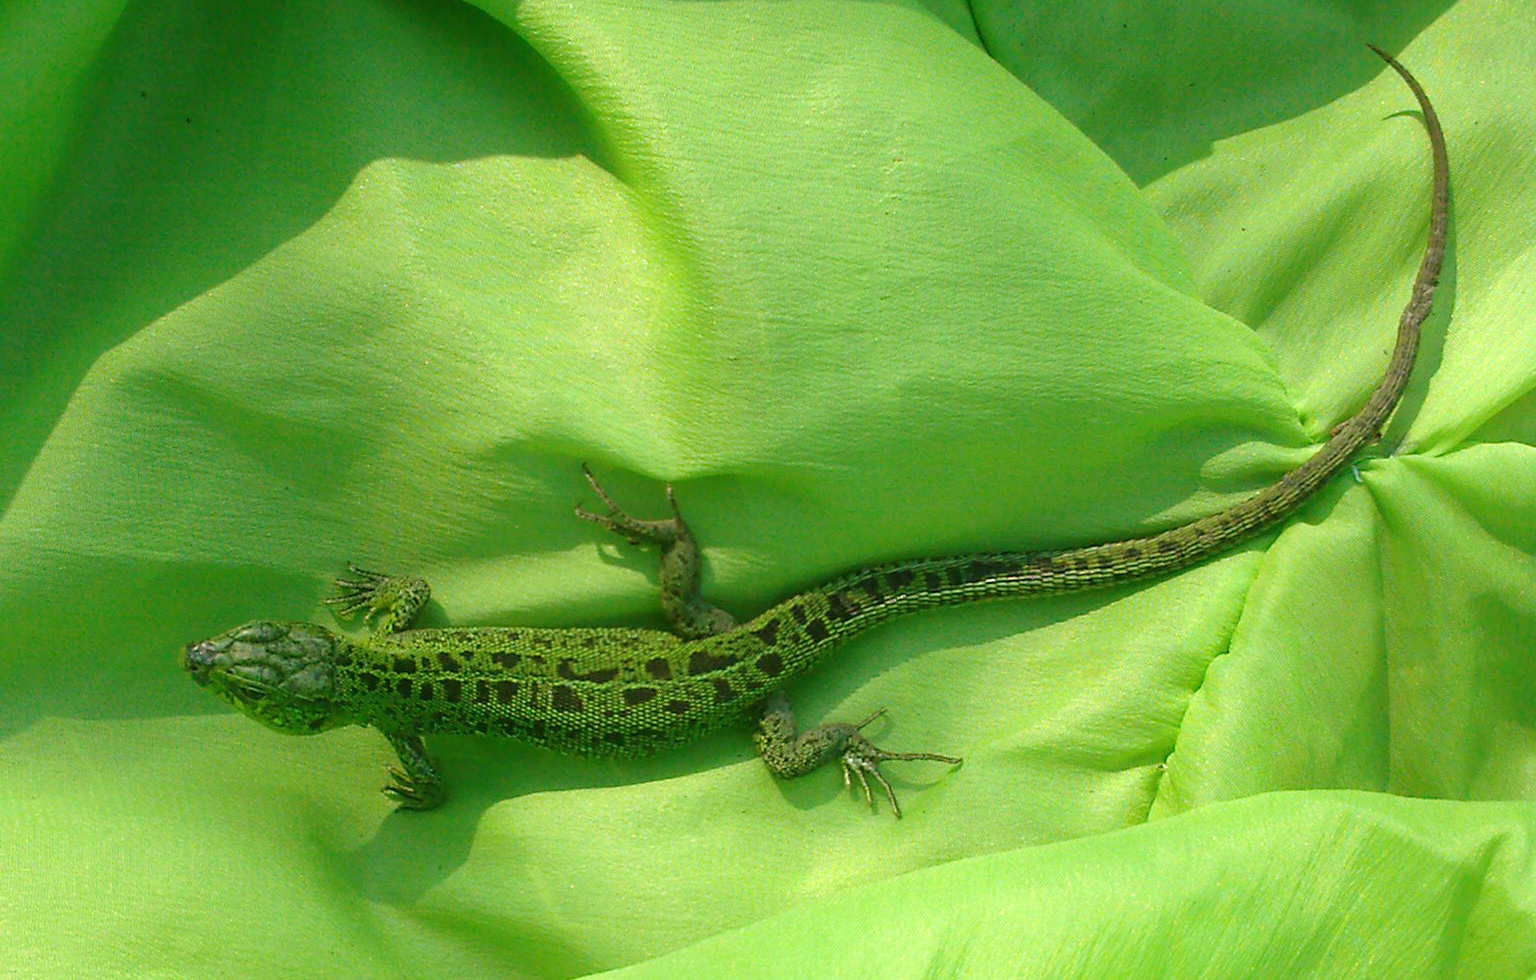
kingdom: Animalia
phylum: Chordata
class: Squamata
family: Lacertidae
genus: Lacerta
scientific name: Lacerta agilis
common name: Sand lizard
